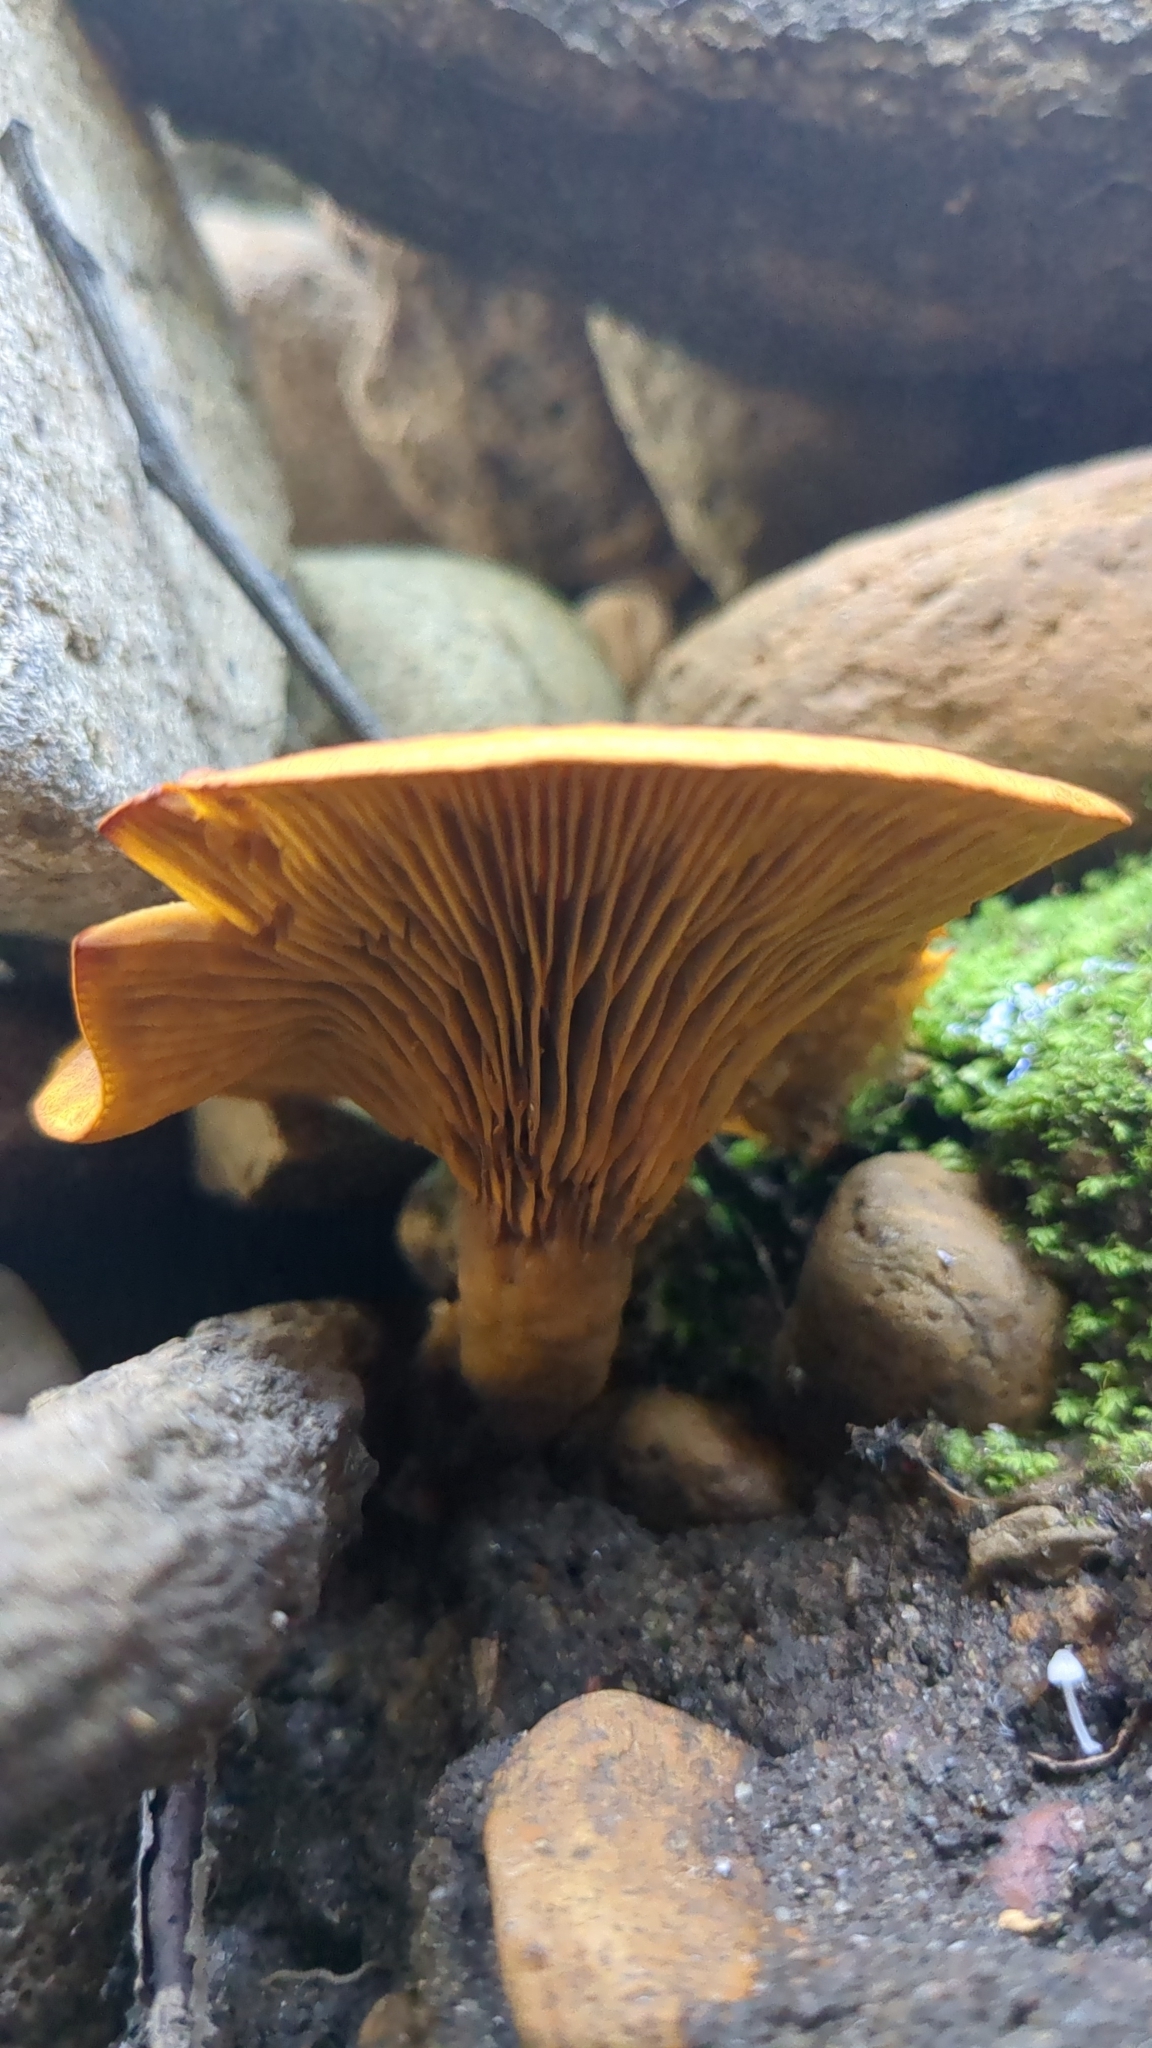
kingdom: Fungi
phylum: Basidiomycota
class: Agaricomycetes
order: Agaricales
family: Omphalotaceae
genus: Omphalotus
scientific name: Omphalotus olivascens
